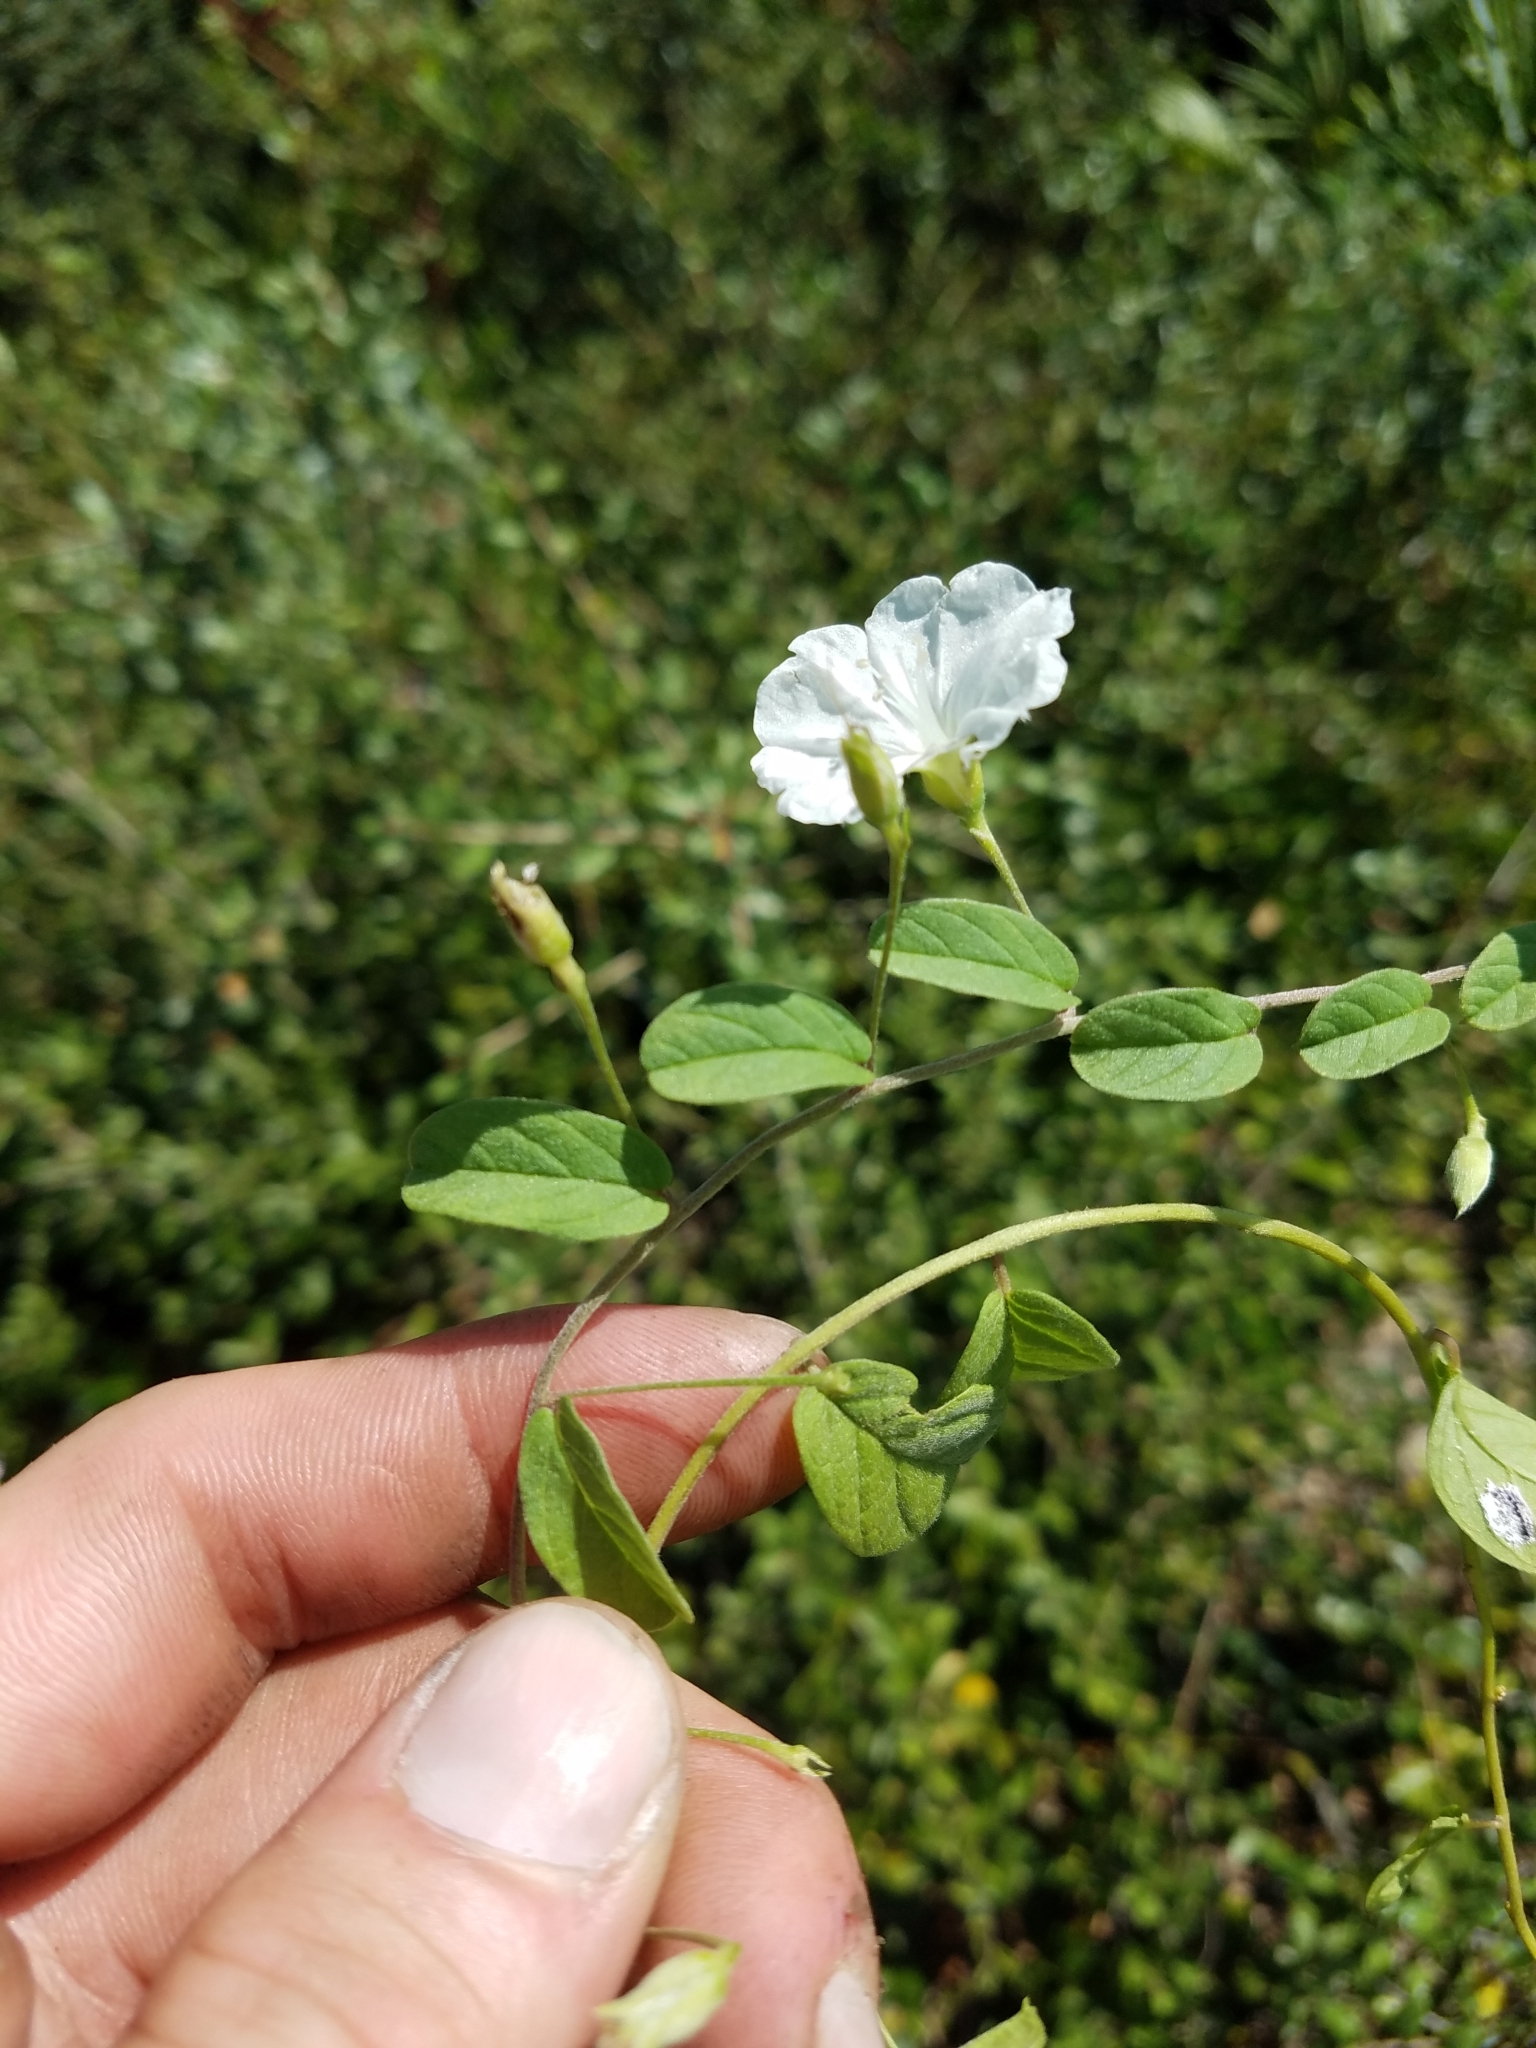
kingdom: Plantae
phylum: Tracheophyta
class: Magnoliopsida
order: Solanales
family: Convolvulaceae
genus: Stylisma
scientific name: Stylisma villosa
